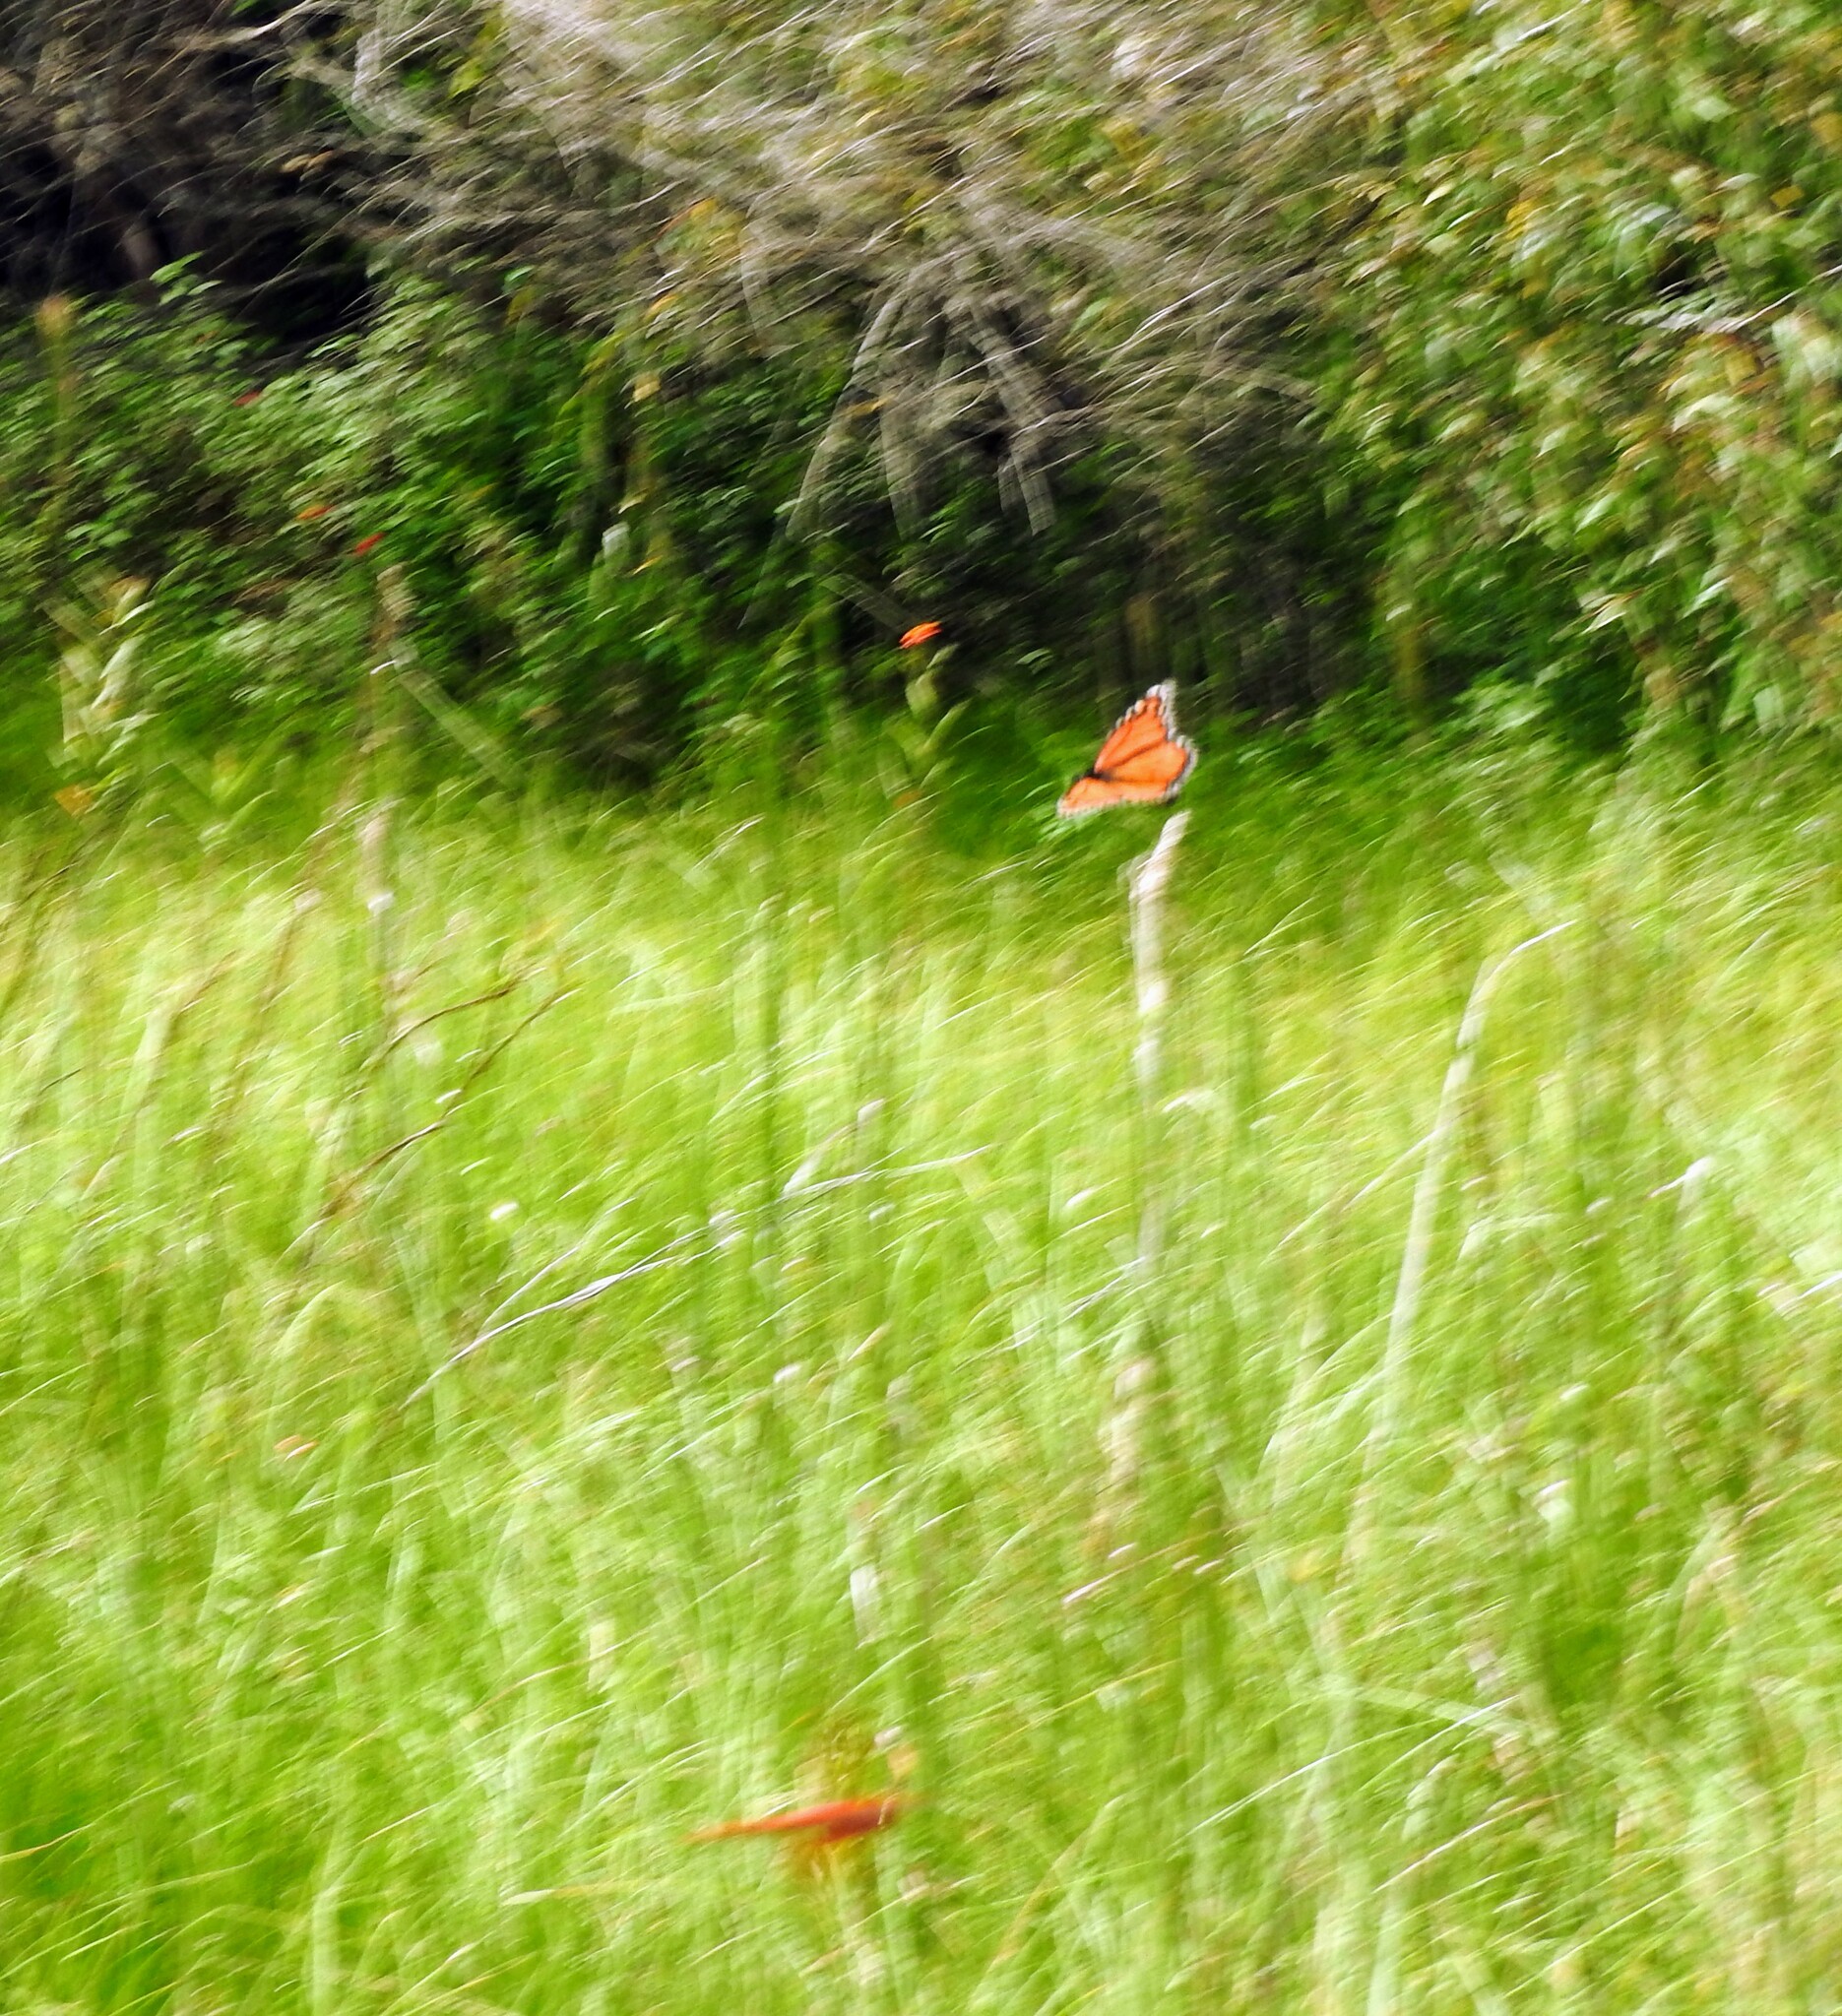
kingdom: Animalia
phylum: Arthropoda
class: Insecta
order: Lepidoptera
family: Nymphalidae
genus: Danaus
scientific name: Danaus plexippus
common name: Monarch
